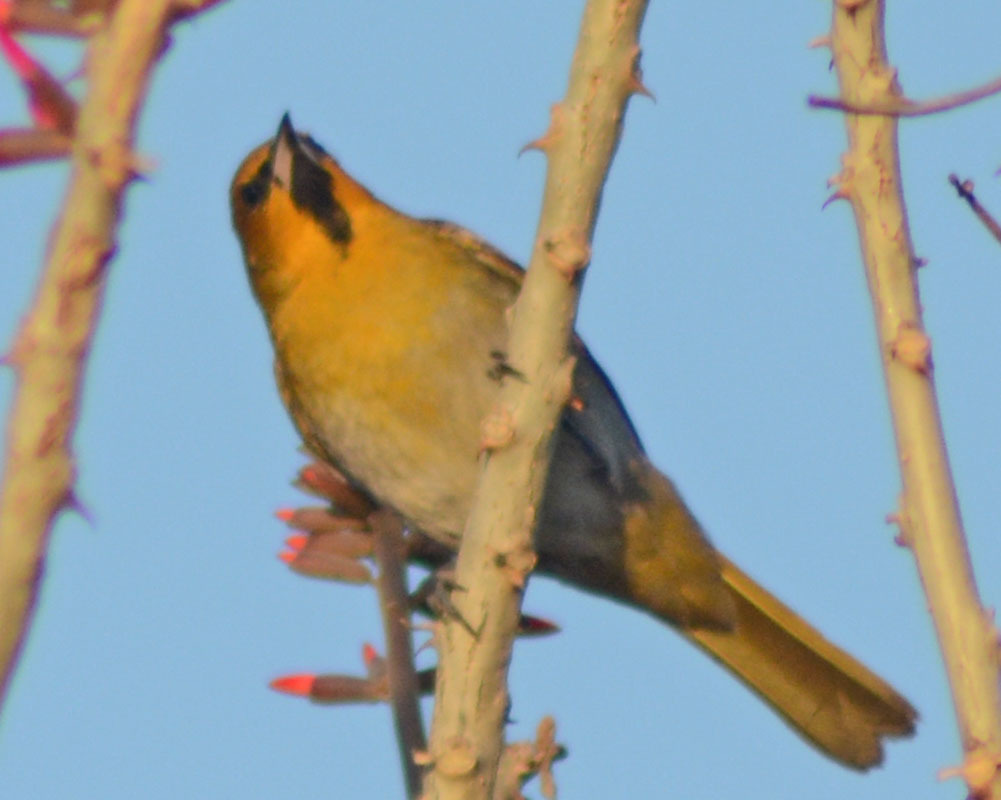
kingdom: Animalia
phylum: Chordata
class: Aves
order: Passeriformes
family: Icteridae
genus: Icterus
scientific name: Icterus bullockii
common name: Bullock's oriole
